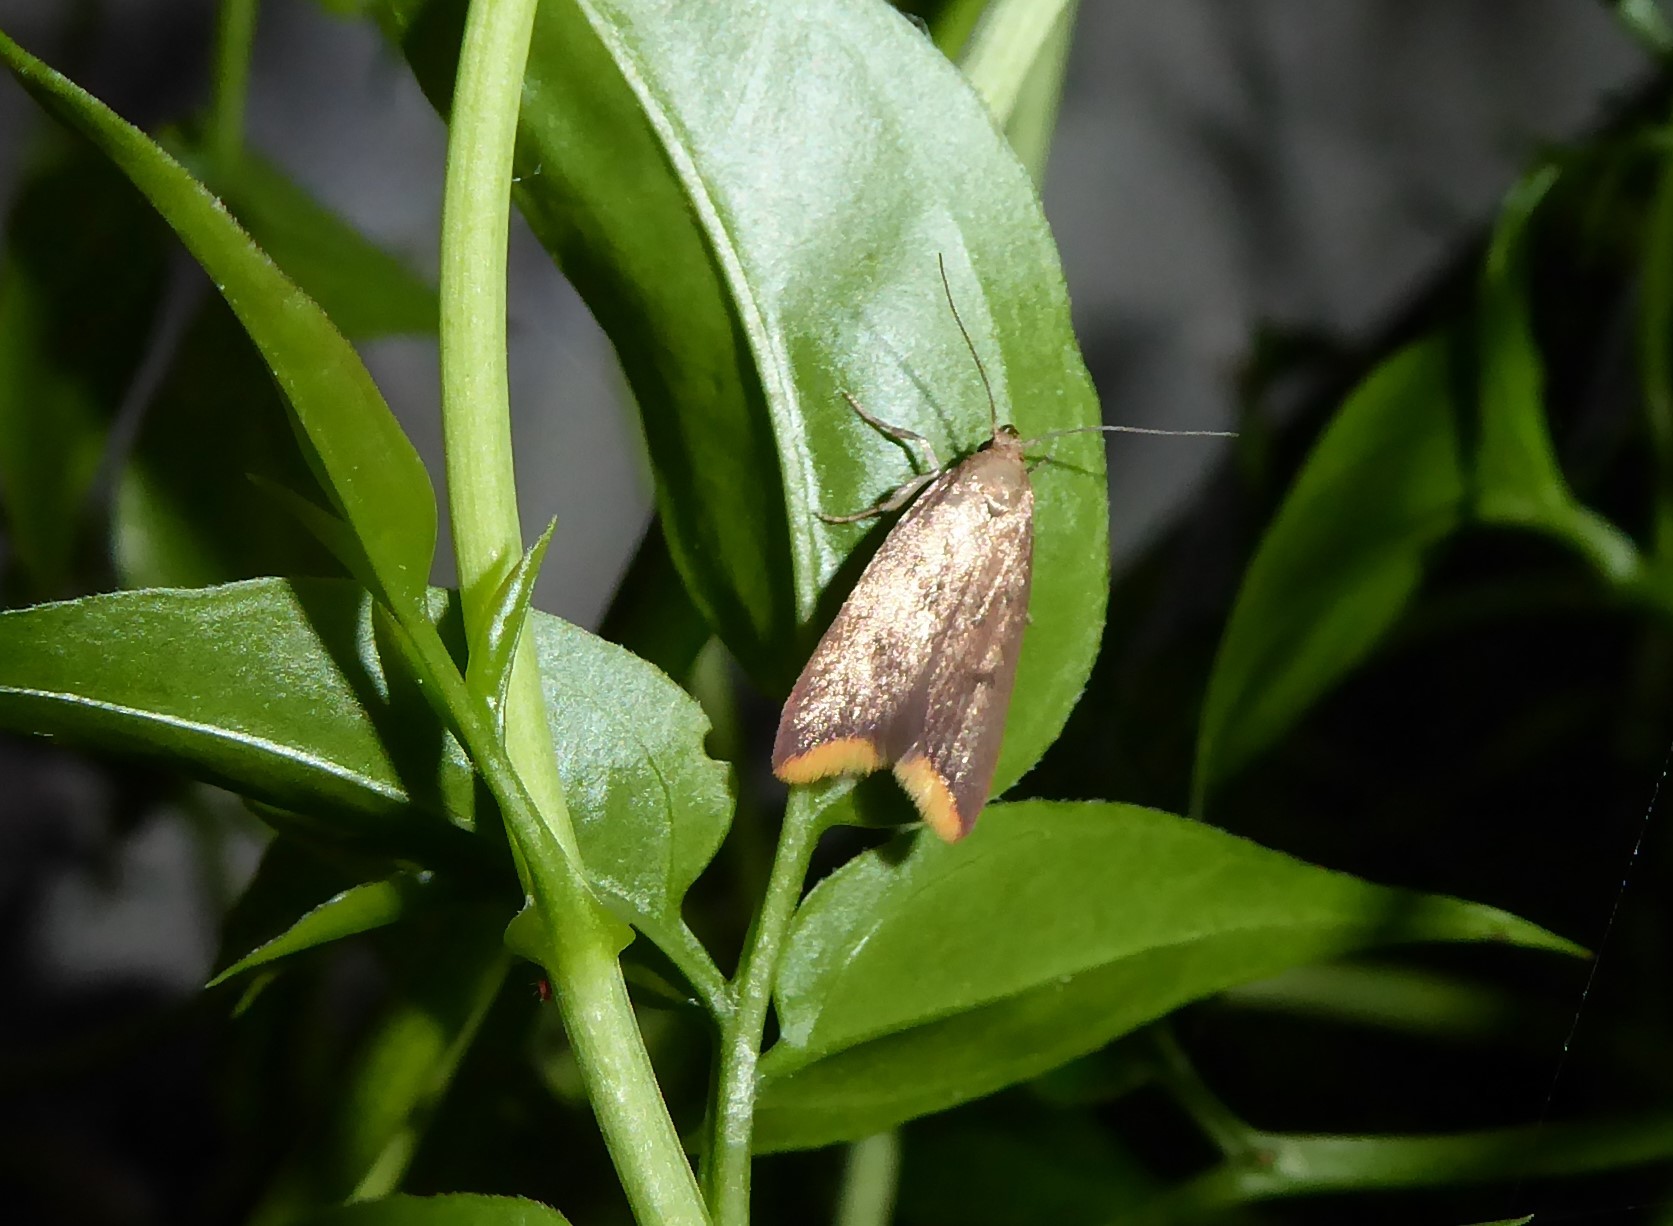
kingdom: Animalia
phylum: Arthropoda
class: Insecta
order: Lepidoptera
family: Oecophoridae
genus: Tachystola
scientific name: Tachystola acroxantha
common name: Ruddy streak
